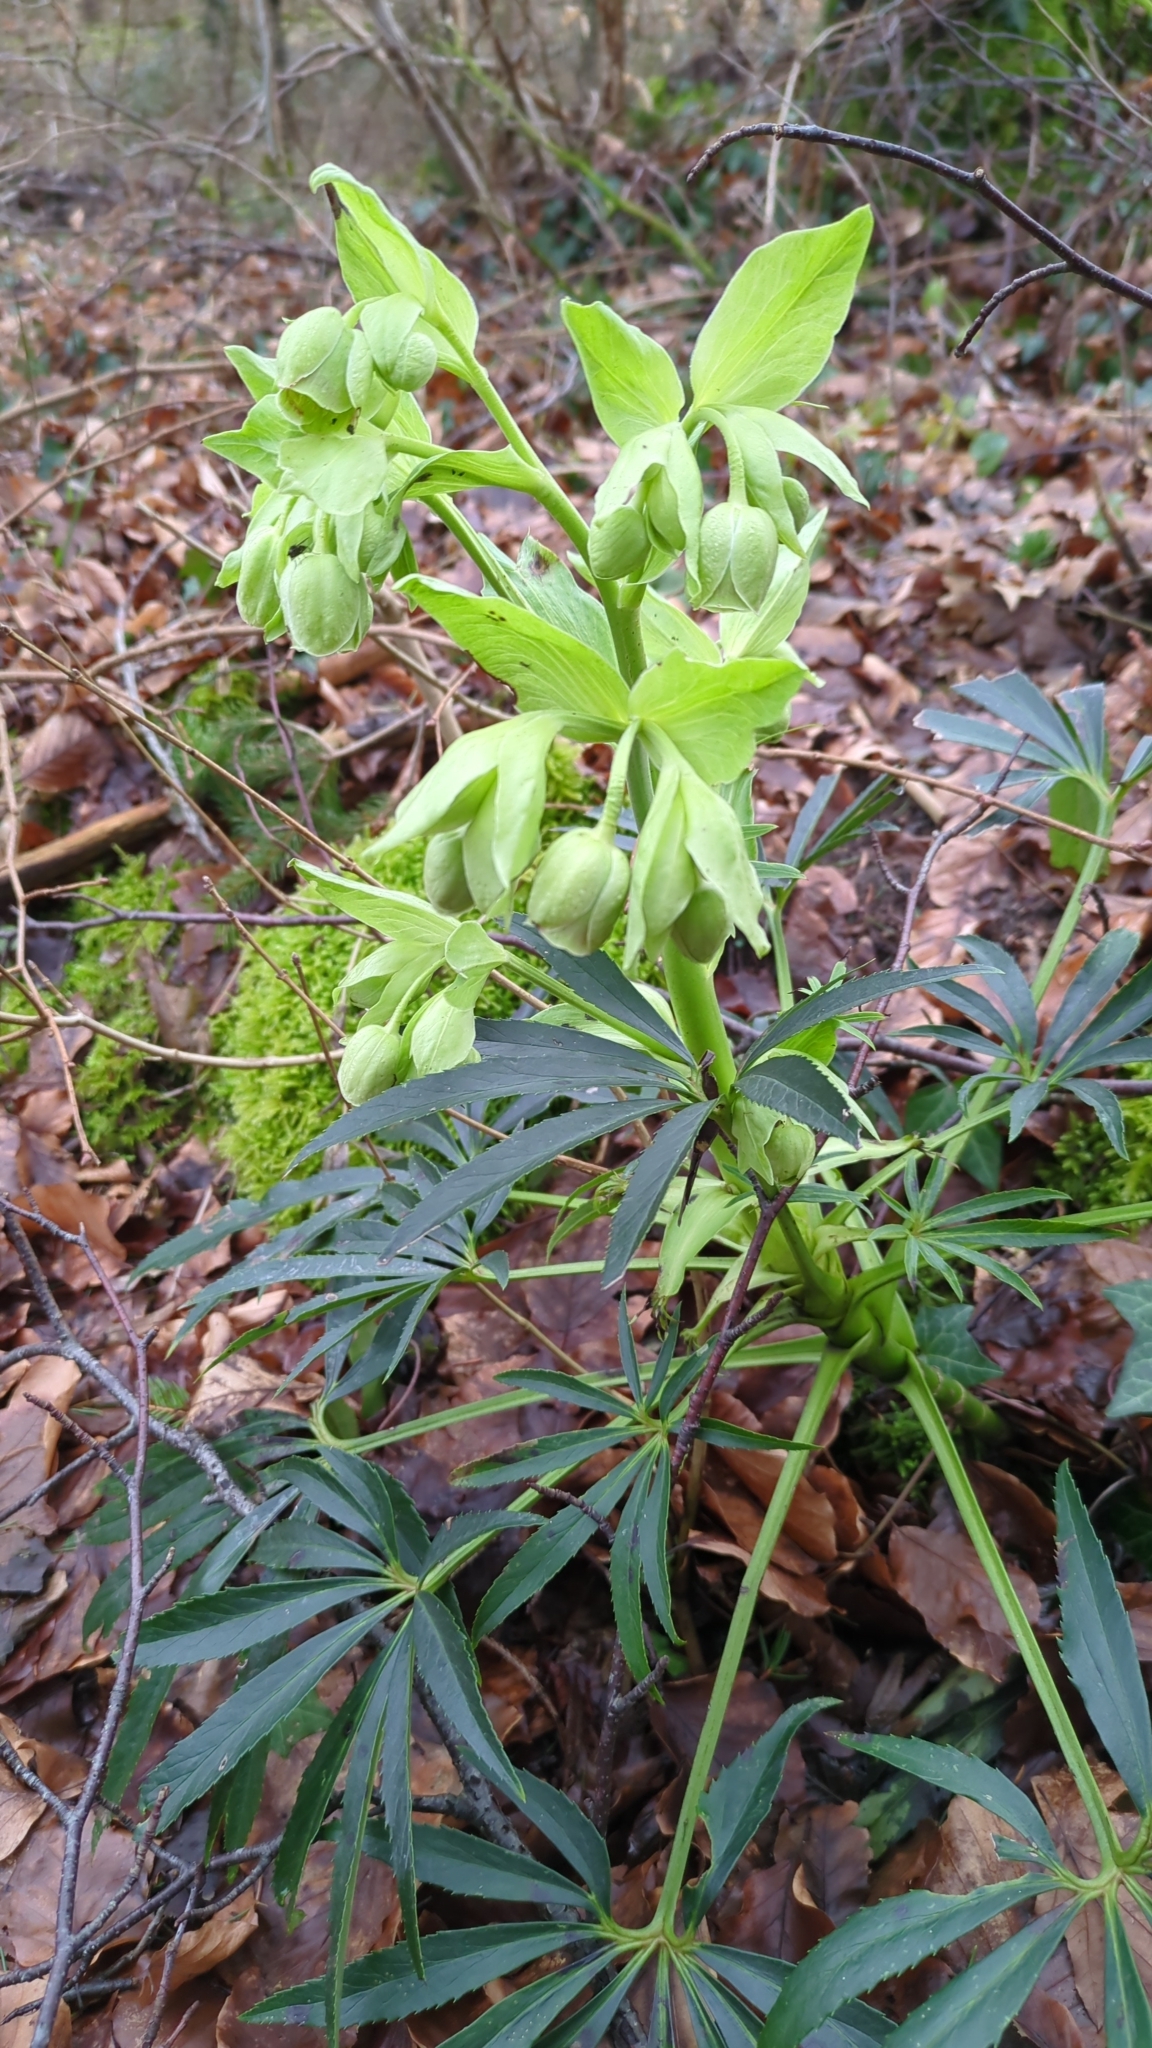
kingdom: Plantae
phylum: Tracheophyta
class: Magnoliopsida
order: Ranunculales
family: Ranunculaceae
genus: Helleborus
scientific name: Helleborus foetidus
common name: Stinking hellebore
